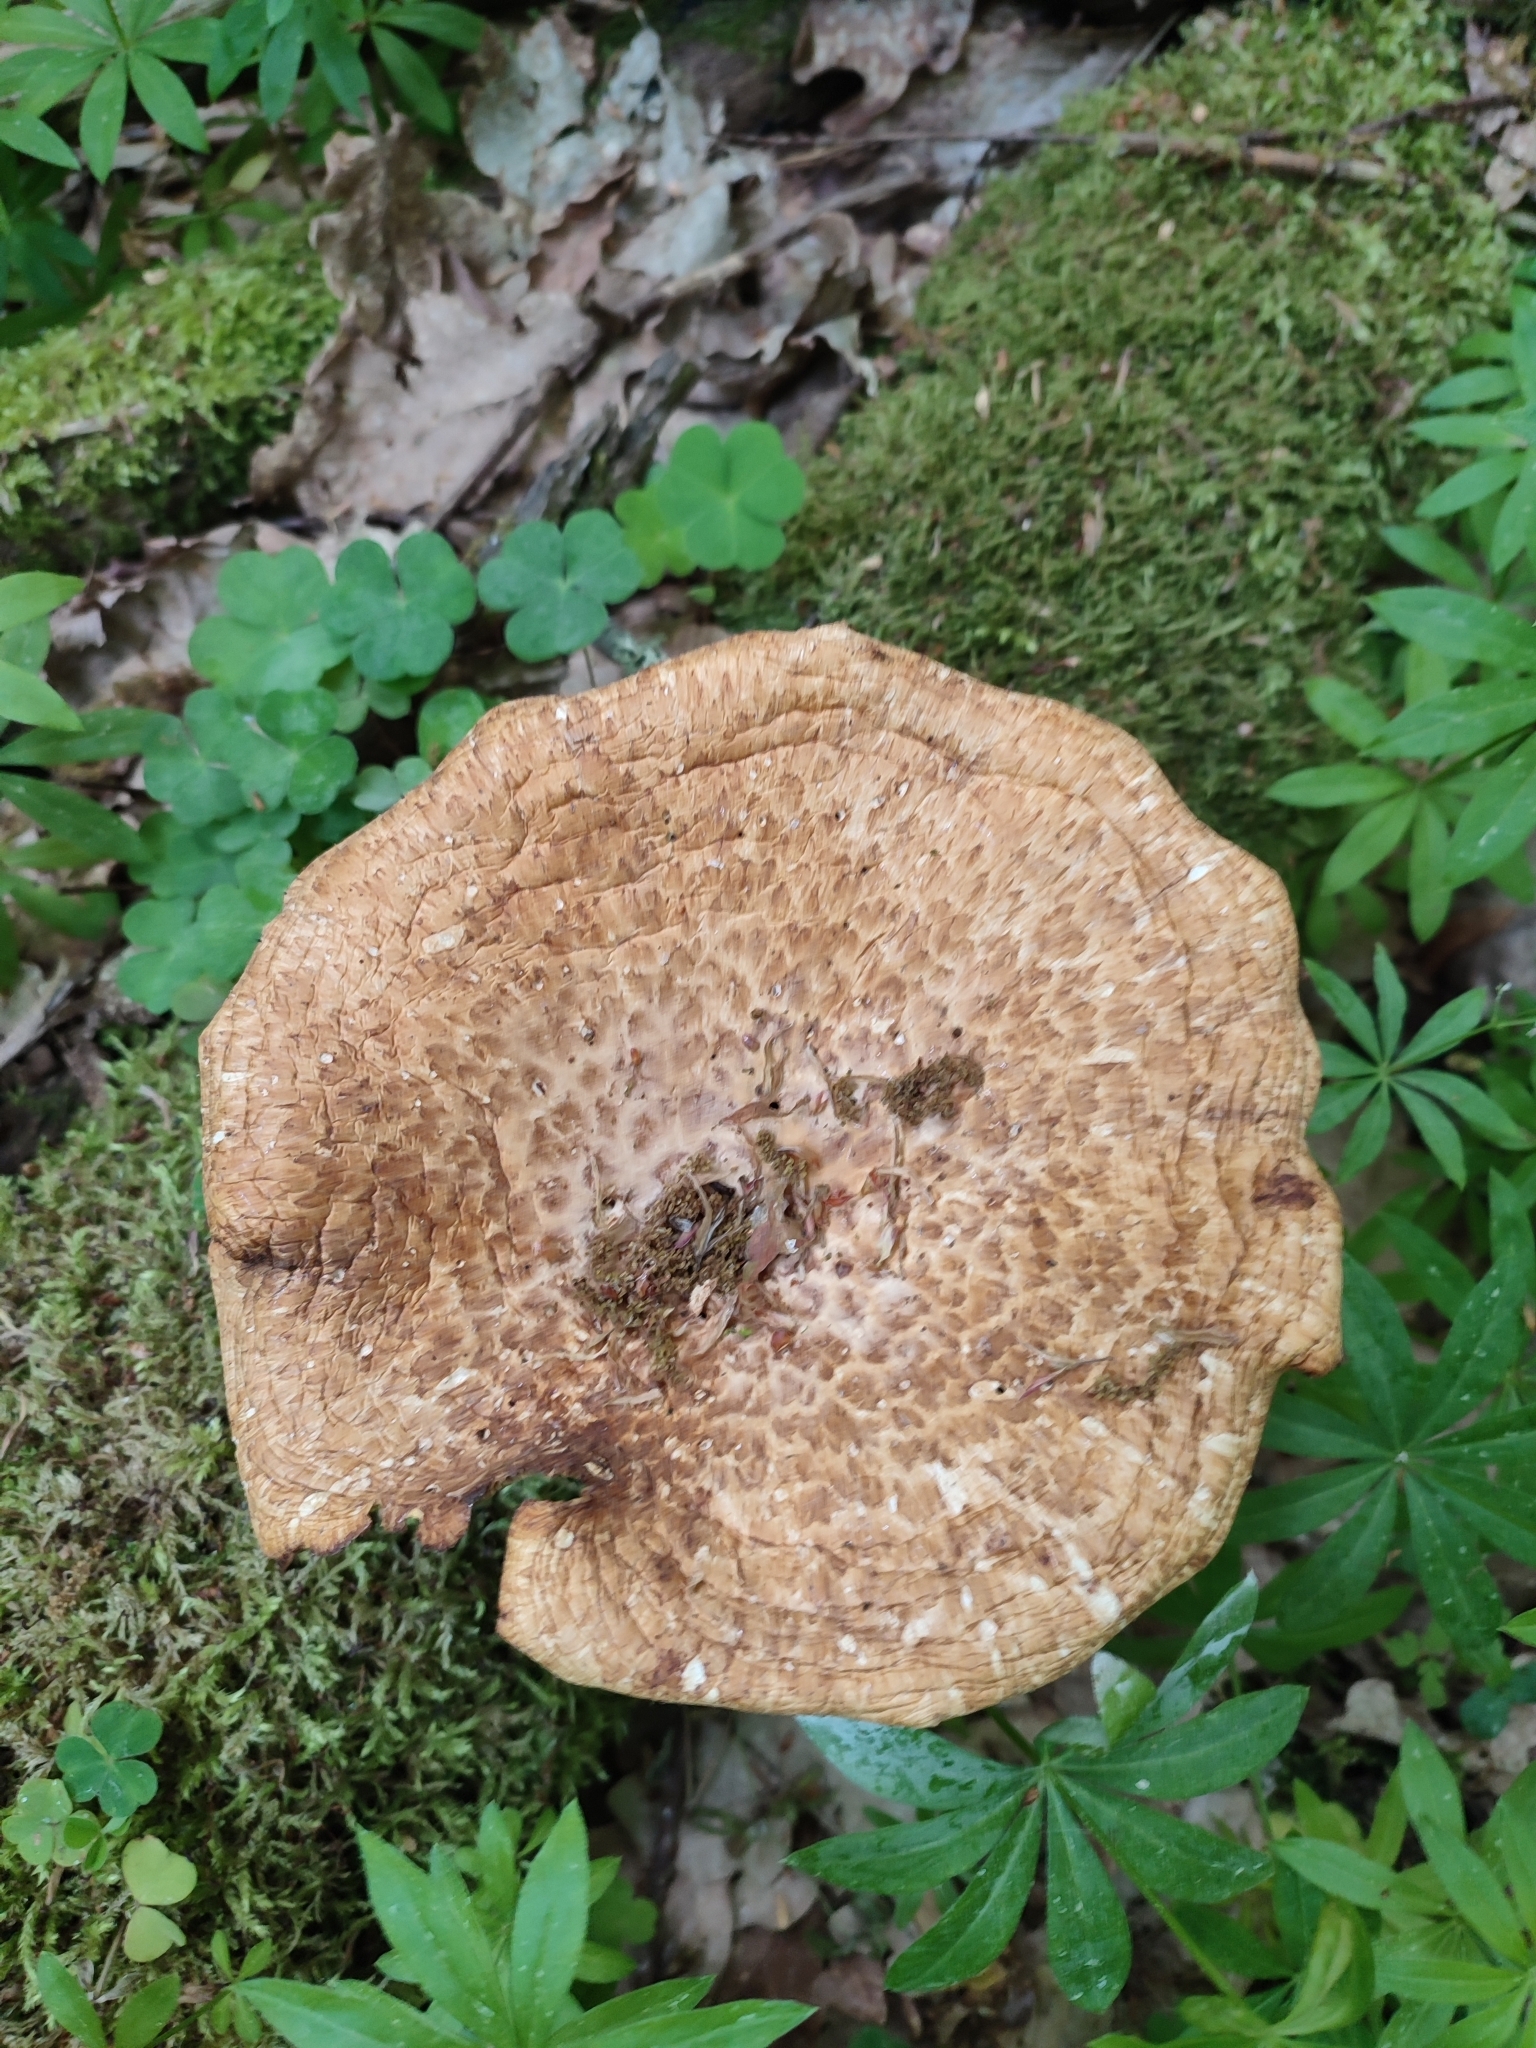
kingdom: Fungi
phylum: Basidiomycota
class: Agaricomycetes
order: Polyporales
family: Polyporaceae
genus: Cerioporus
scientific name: Cerioporus squamosus
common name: Dryad's saddle
